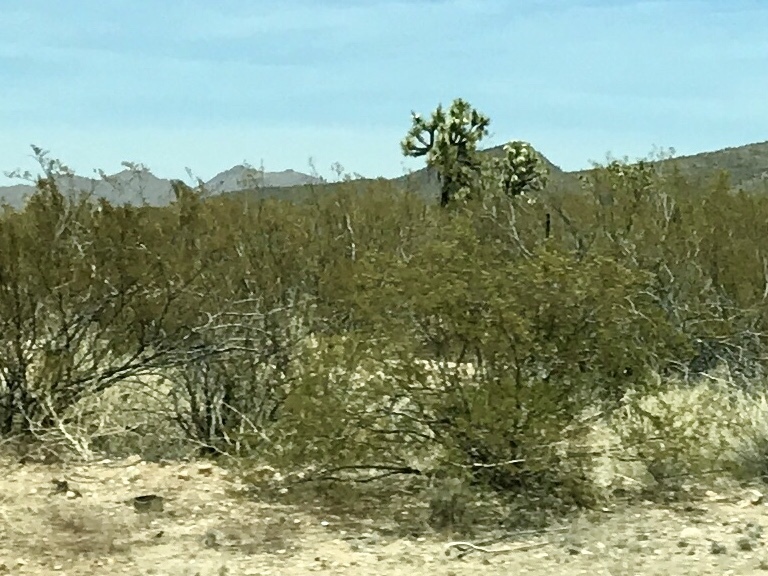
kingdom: Plantae
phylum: Tracheophyta
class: Magnoliopsida
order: Zygophyllales
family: Zygophyllaceae
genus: Larrea
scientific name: Larrea tridentata
